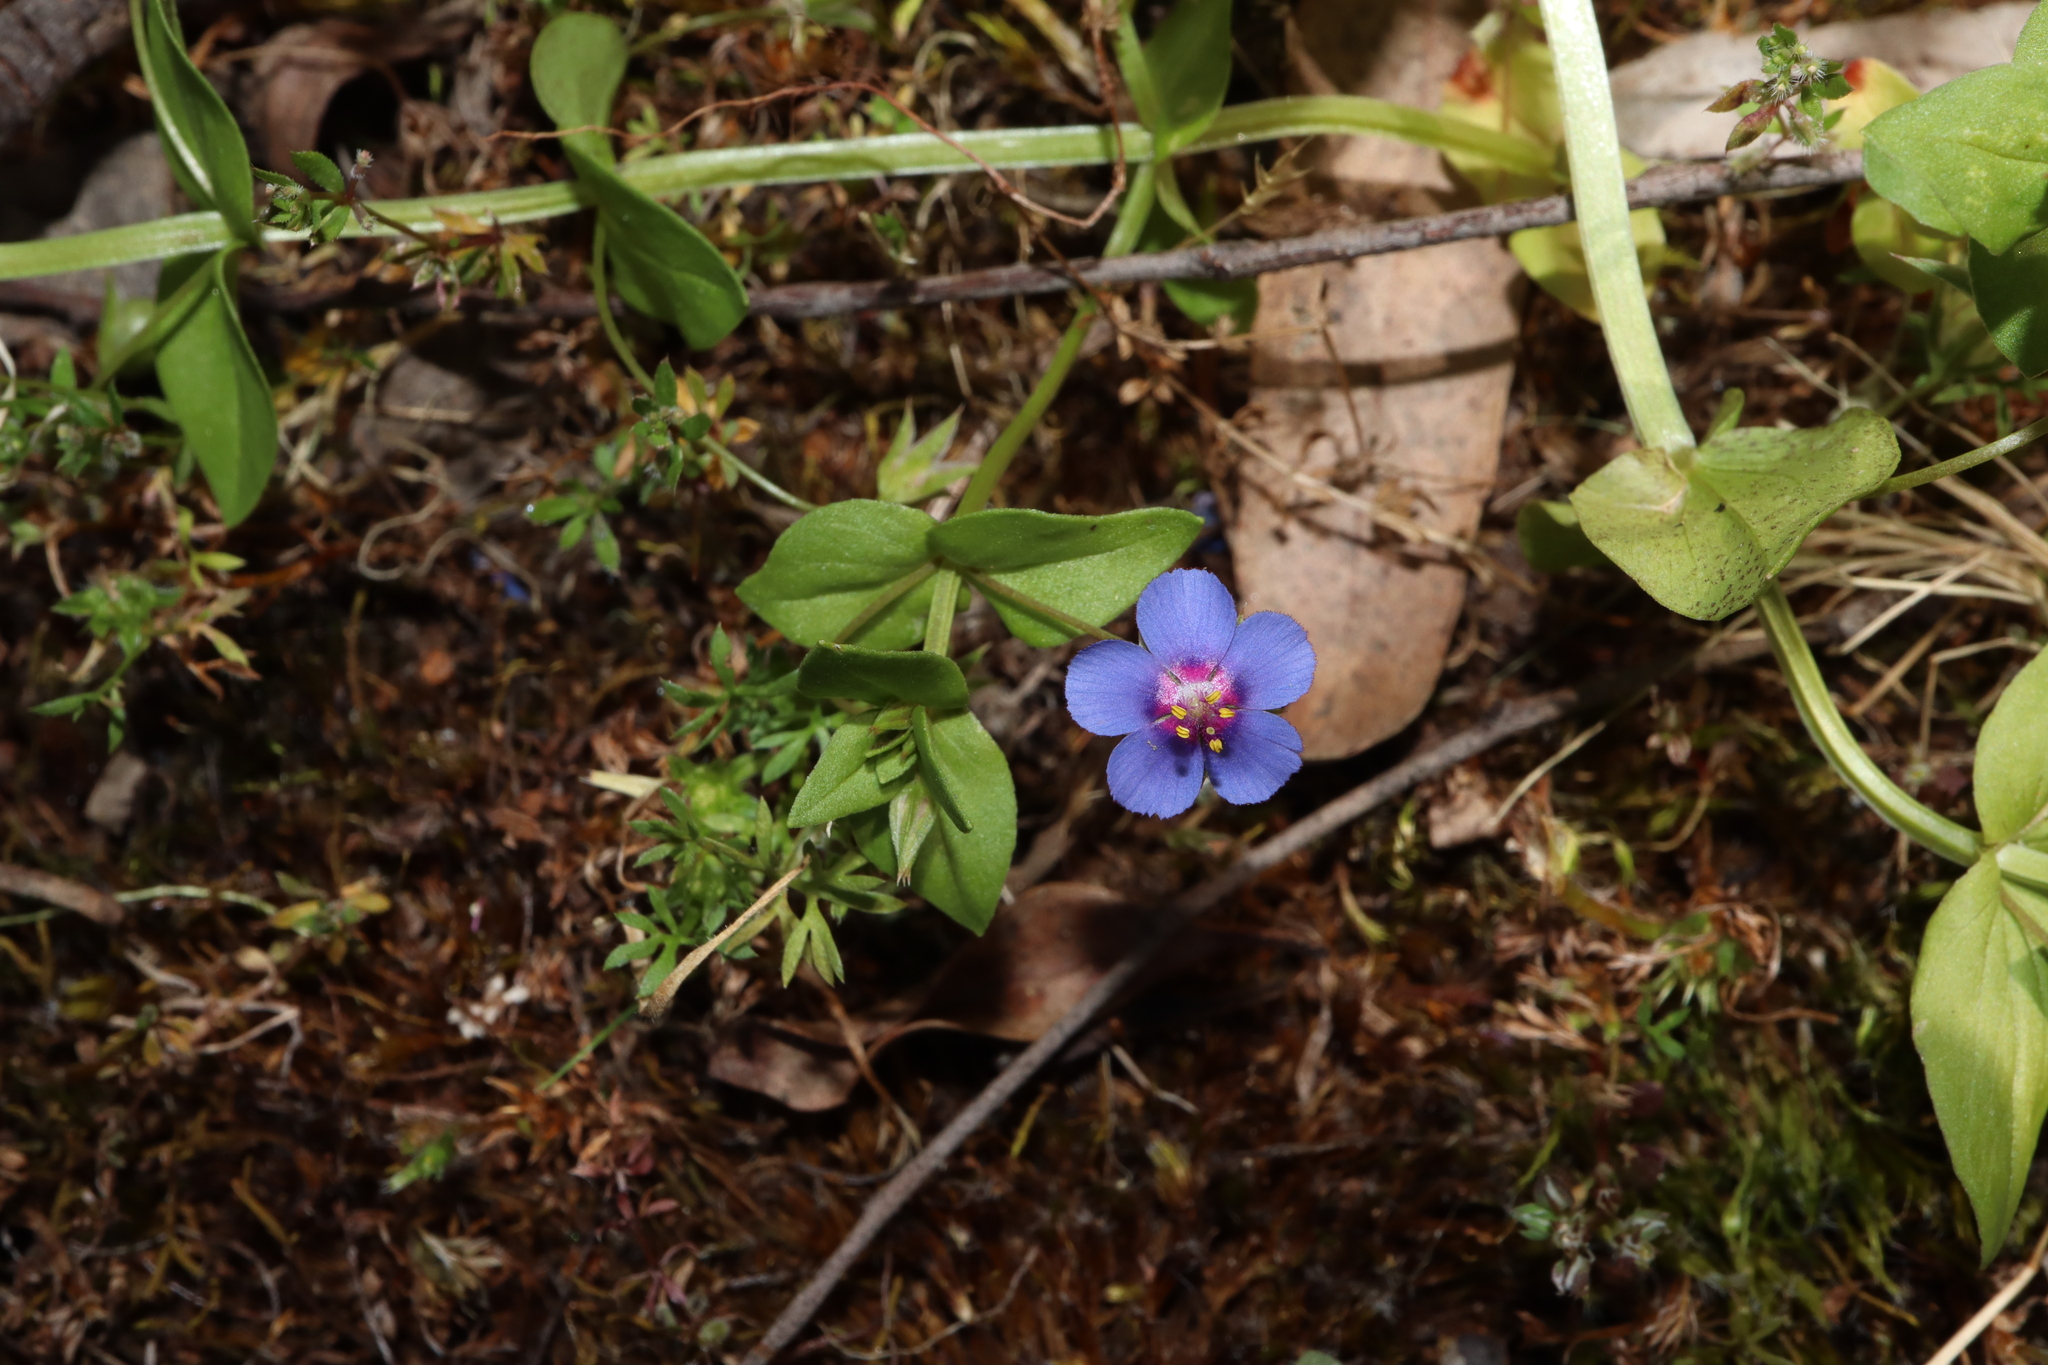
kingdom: Plantae
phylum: Tracheophyta
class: Magnoliopsida
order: Ericales
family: Primulaceae
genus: Lysimachia
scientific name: Lysimachia loeflingii
